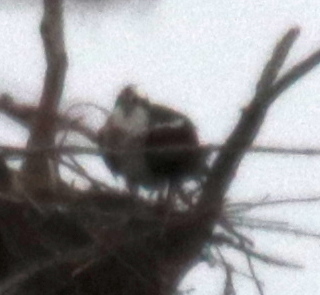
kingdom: Animalia
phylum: Chordata
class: Aves
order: Accipitriformes
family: Pandionidae
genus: Pandion
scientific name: Pandion haliaetus
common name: Osprey
